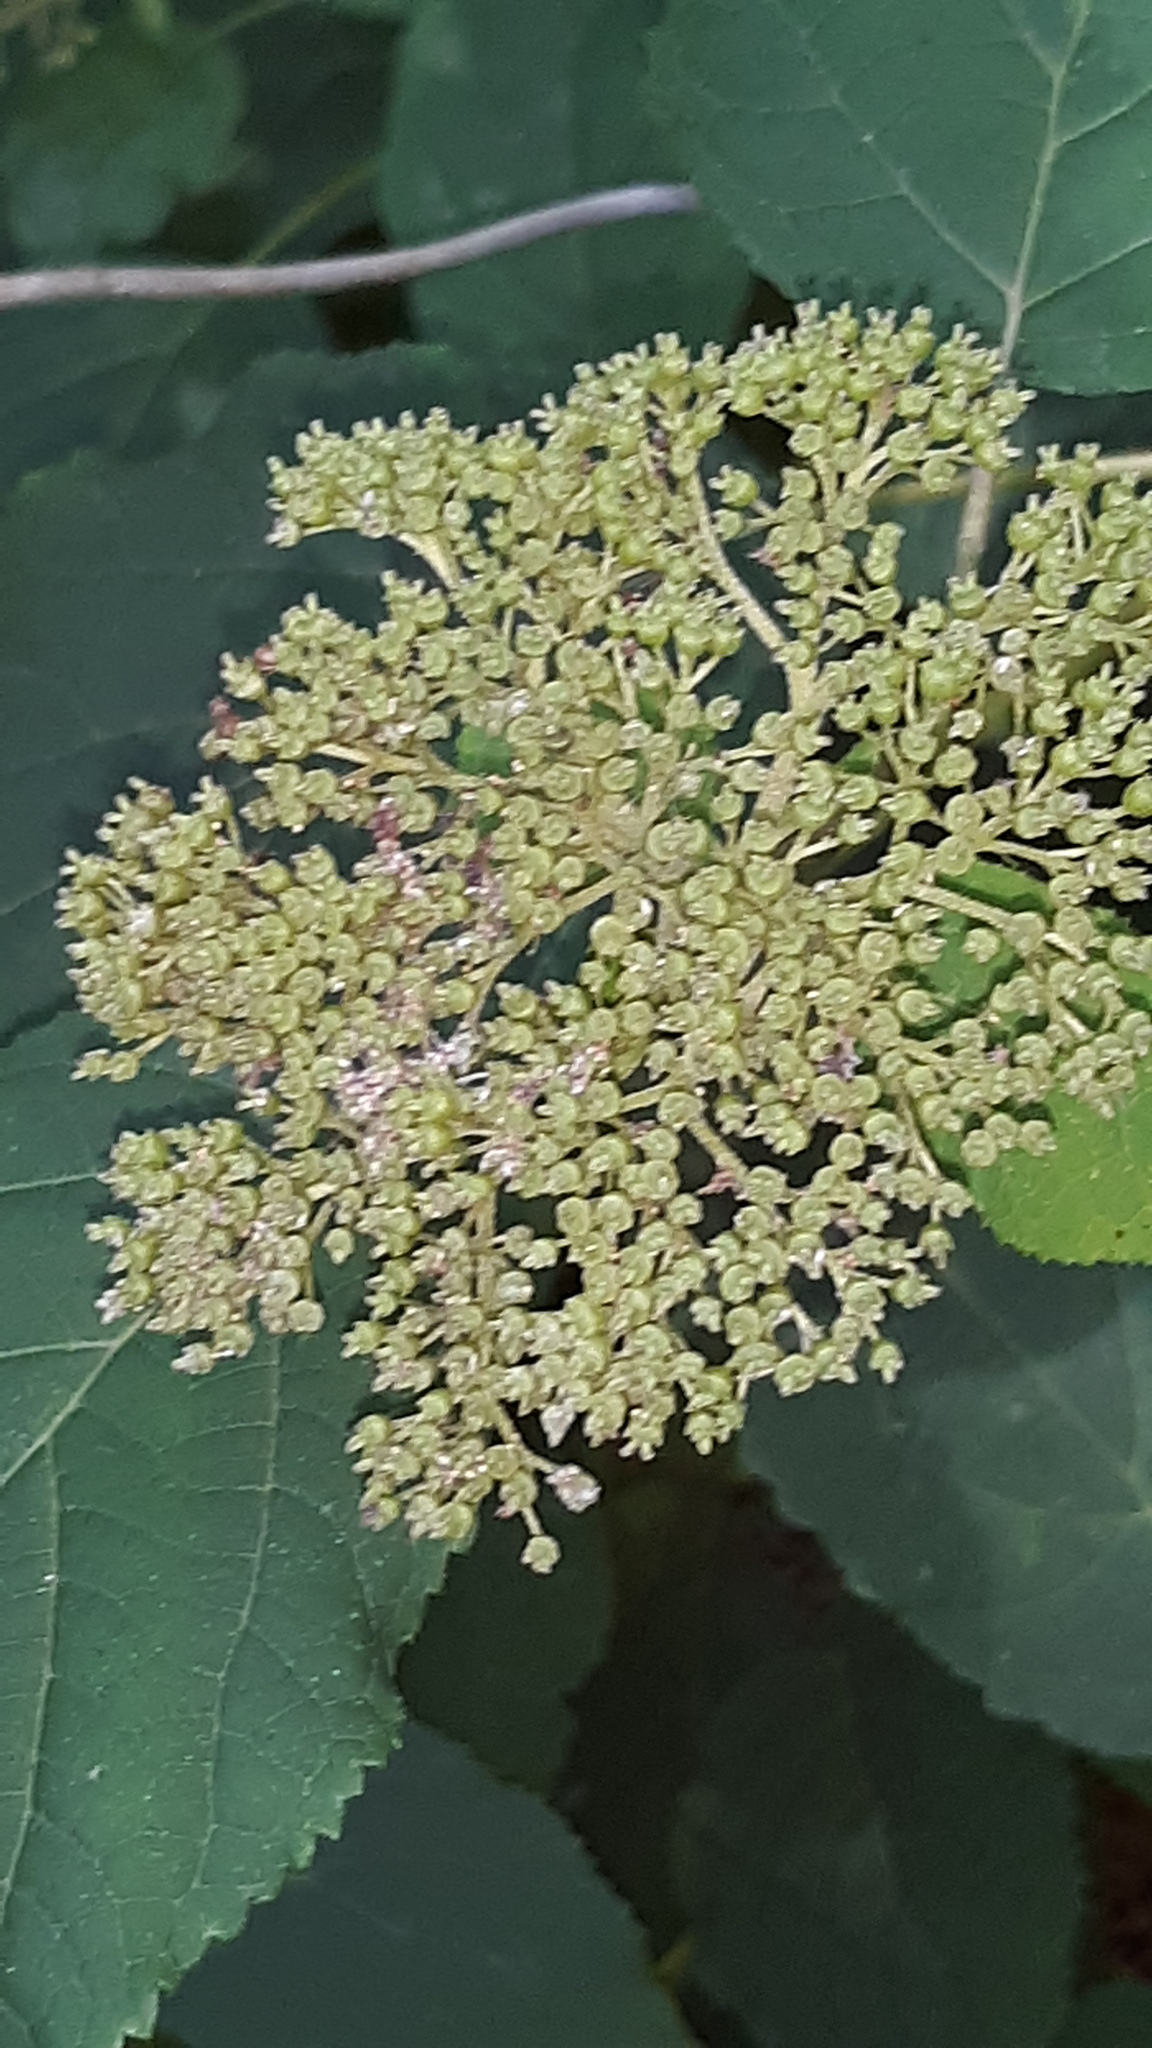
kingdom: Plantae
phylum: Tracheophyta
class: Magnoliopsida
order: Cornales
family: Hydrangeaceae
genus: Hydrangea
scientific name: Hydrangea arborescens
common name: Sevenbark
